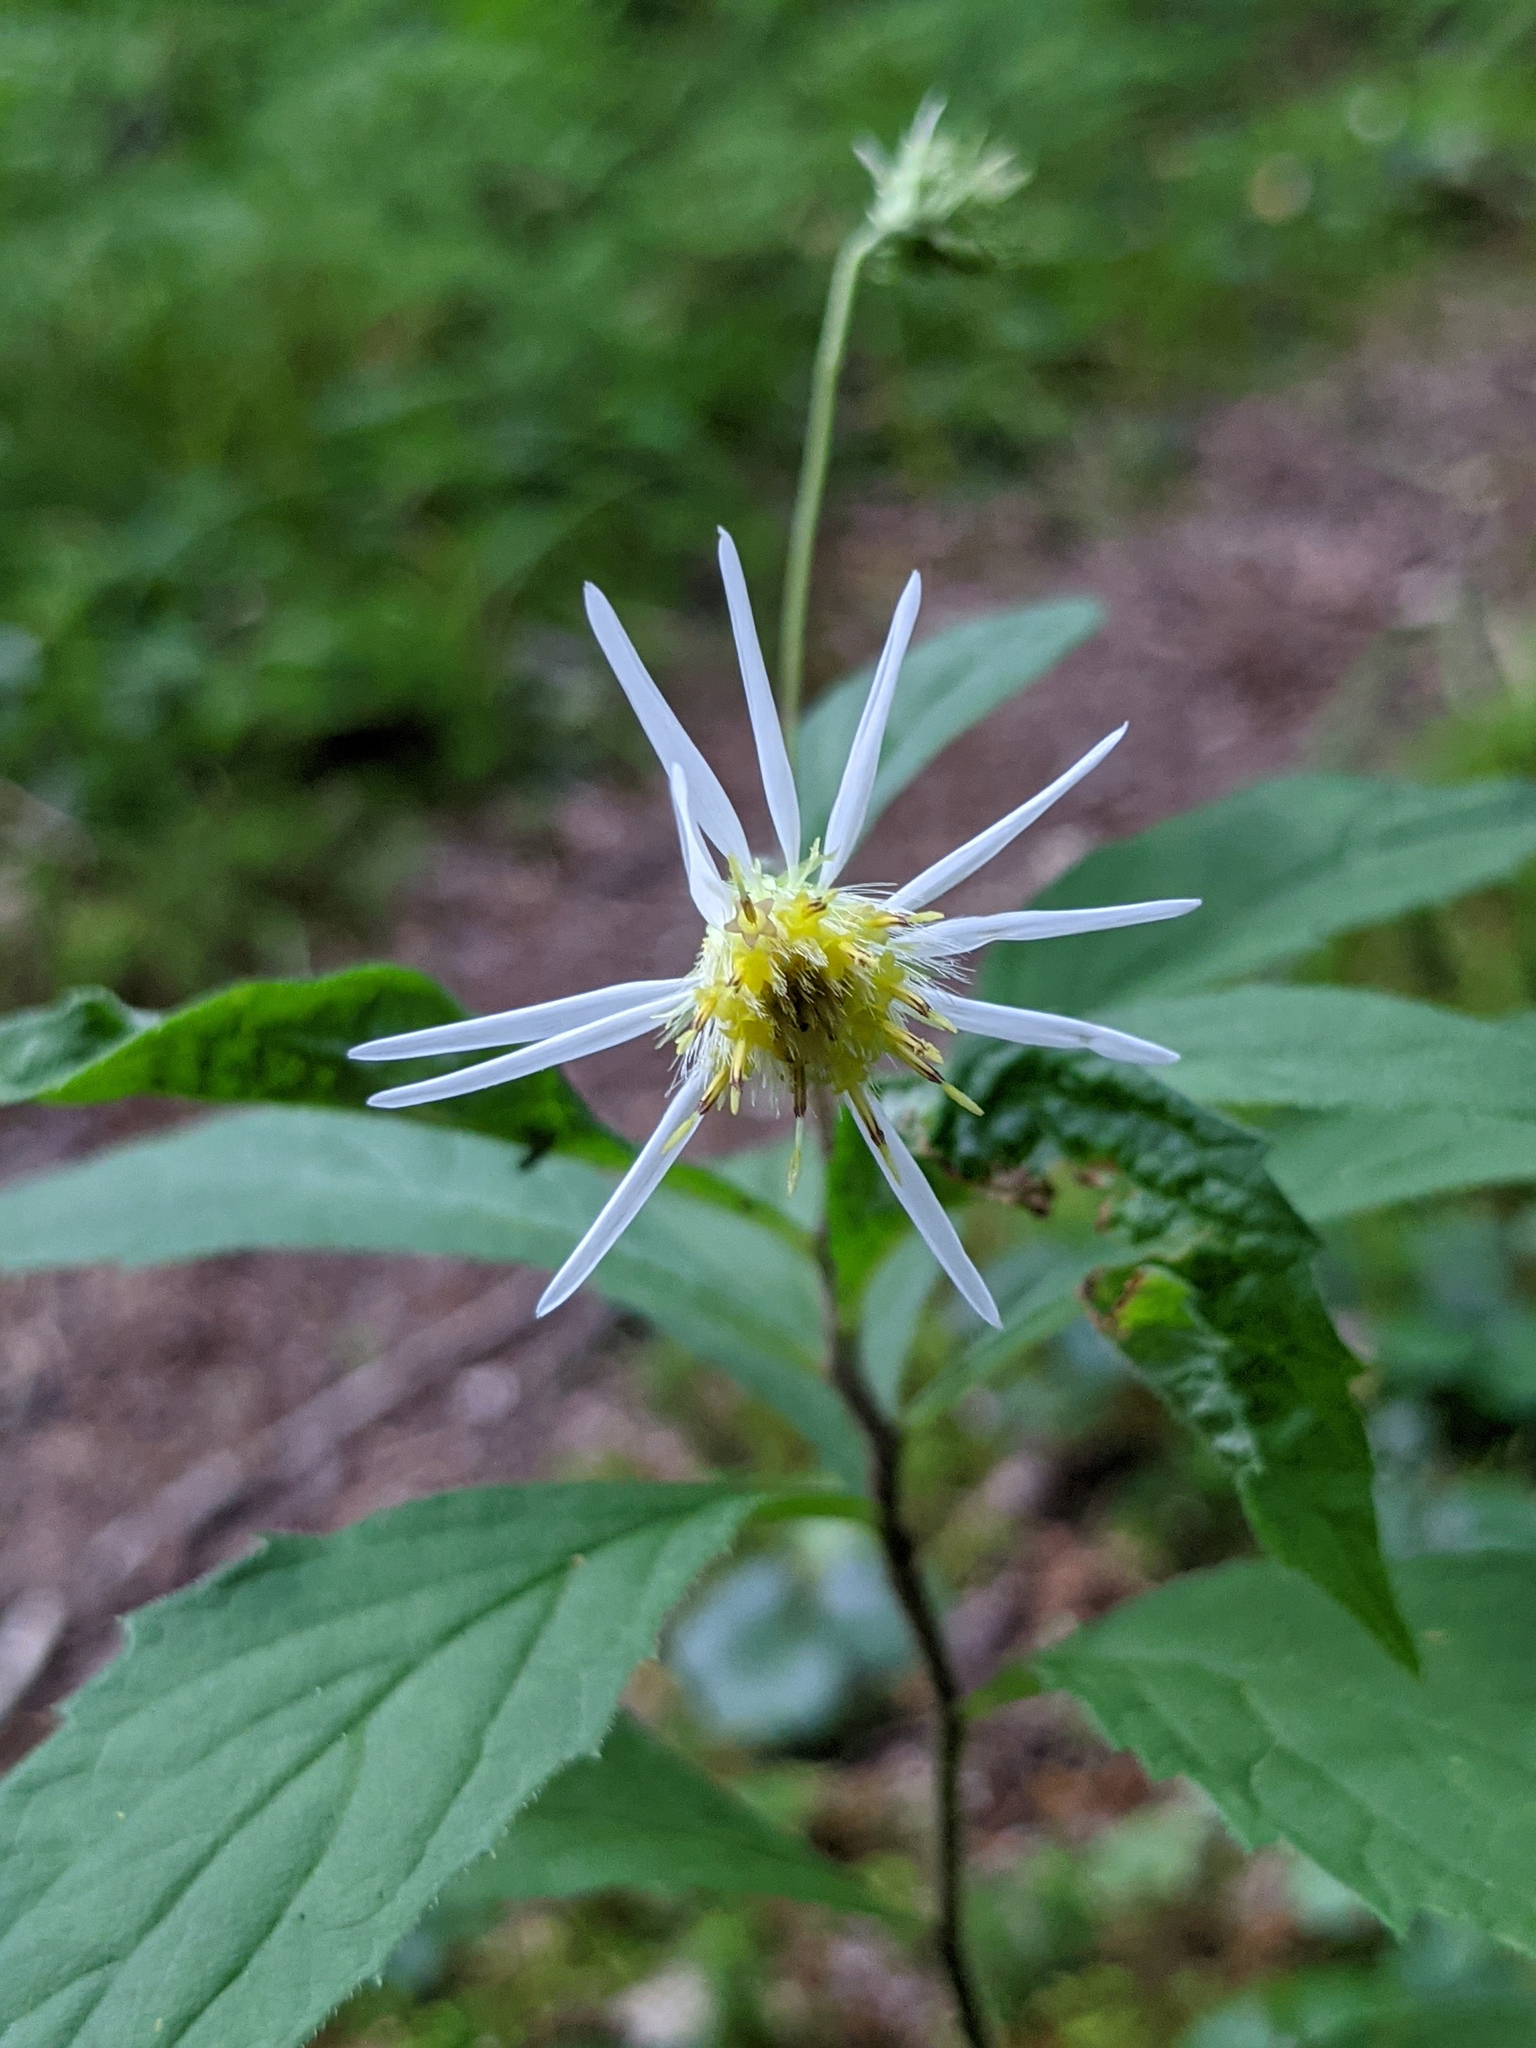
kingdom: Plantae
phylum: Tracheophyta
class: Magnoliopsida
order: Asterales
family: Asteraceae
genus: Oclemena
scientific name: Oclemena acuminata
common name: Mountain aster
